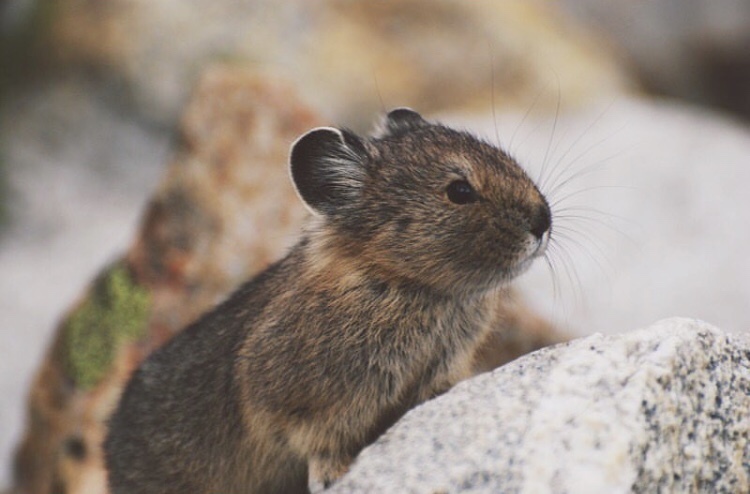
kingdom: Animalia
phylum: Chordata
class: Mammalia
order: Lagomorpha
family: Ochotonidae
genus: Ochotona
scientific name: Ochotona princeps
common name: American pika
